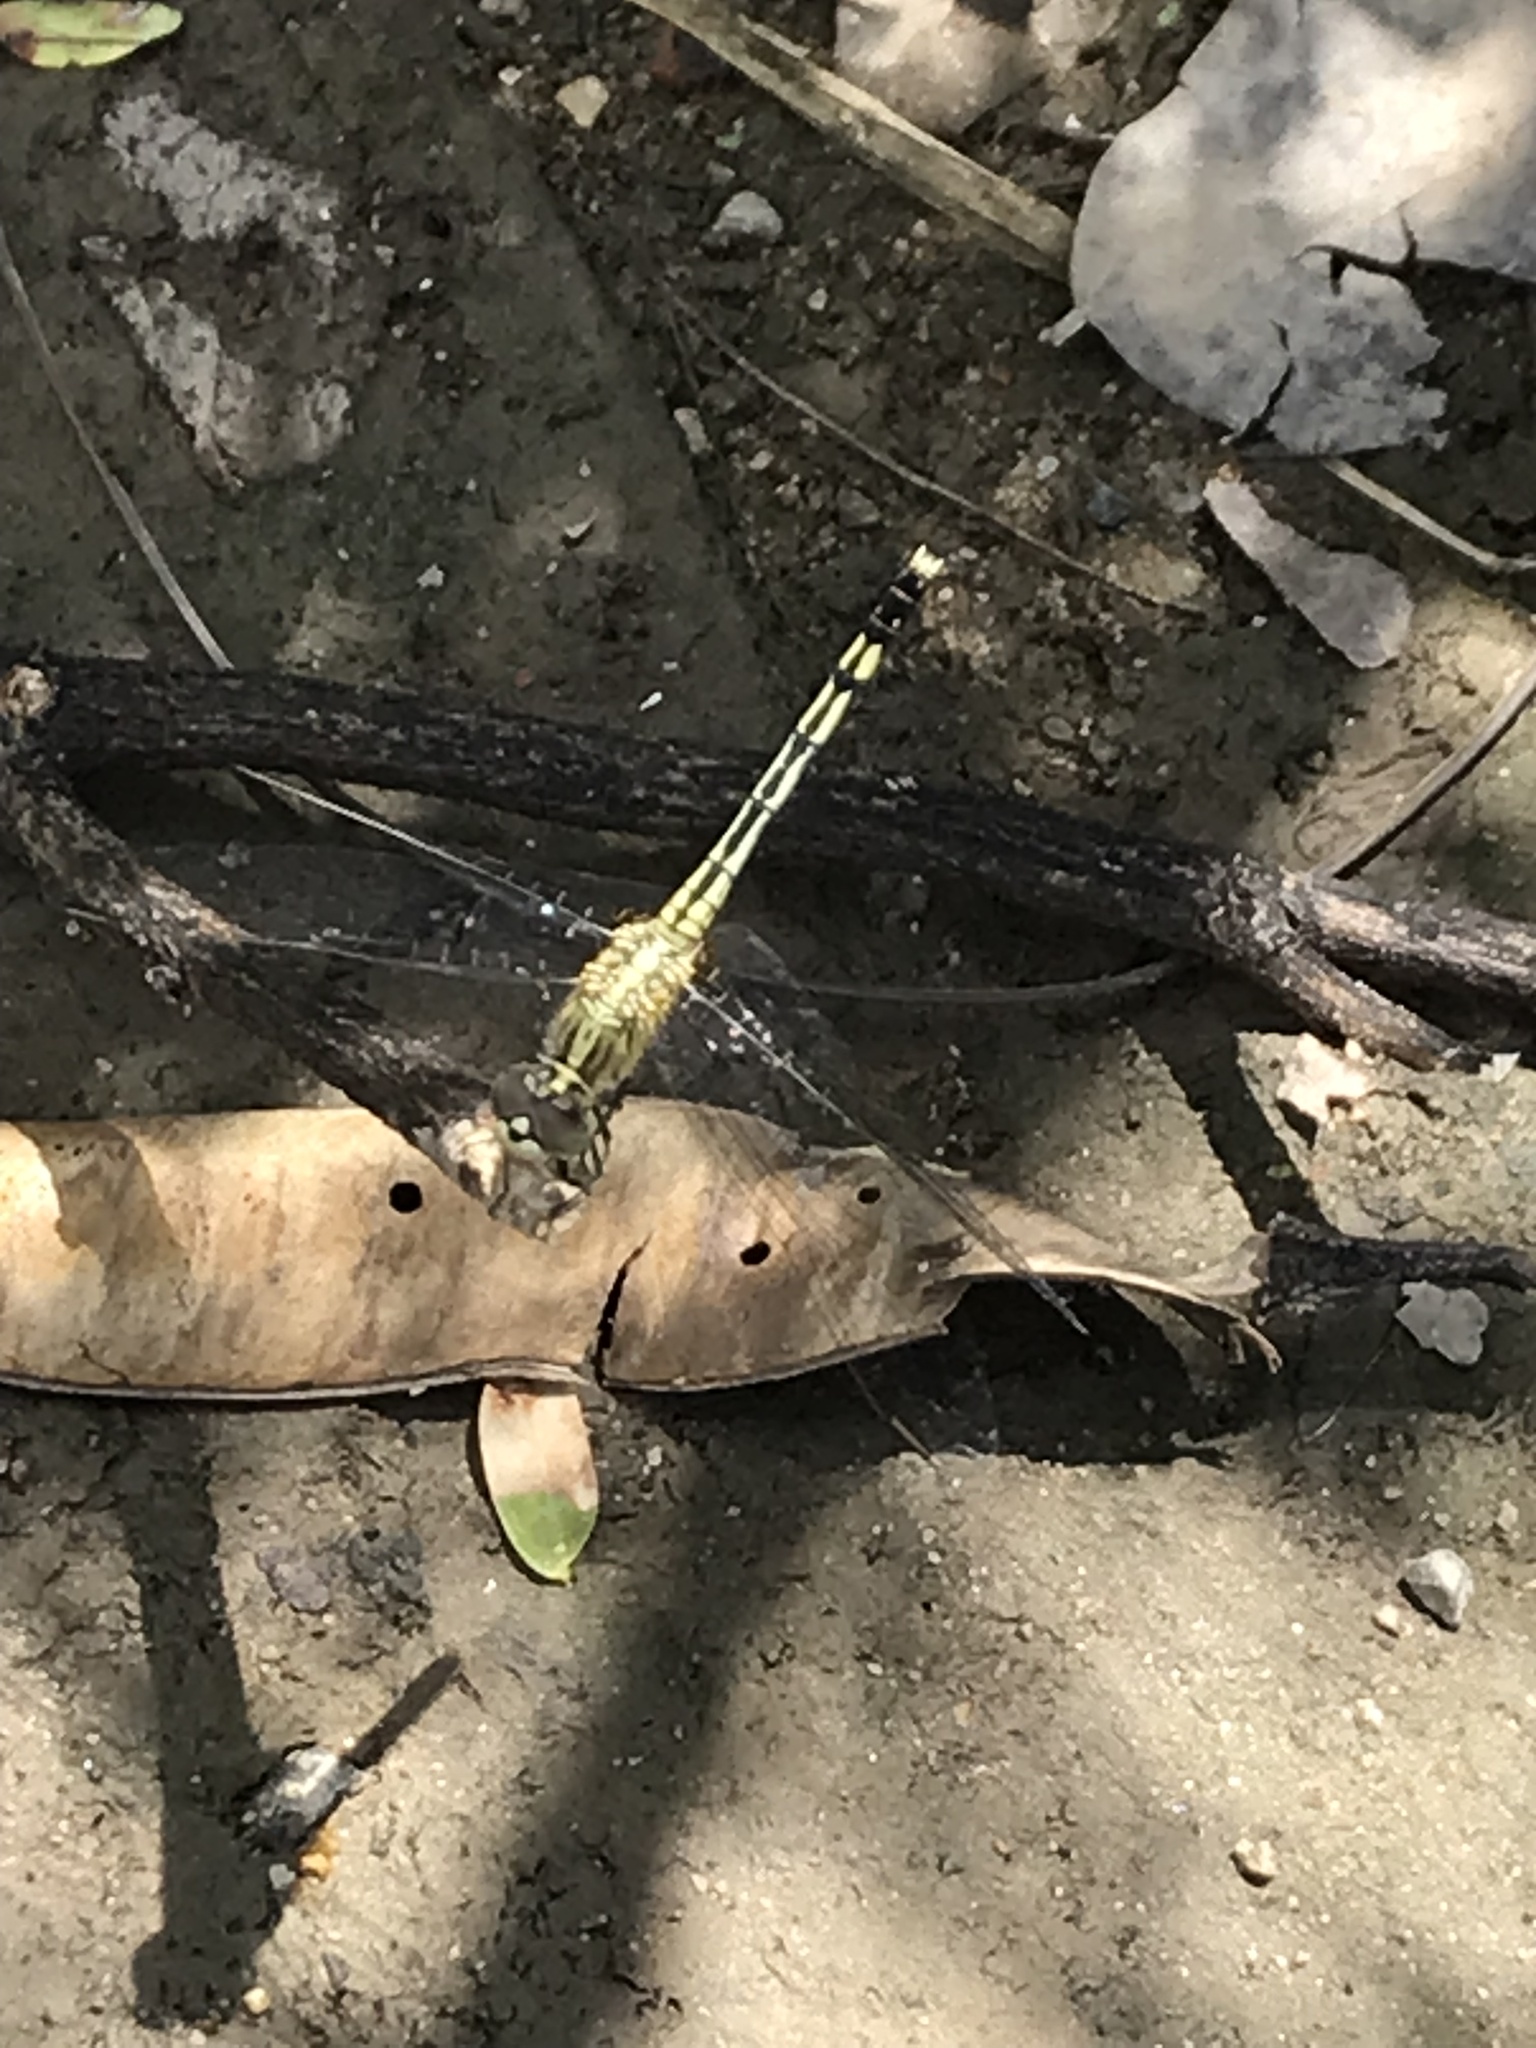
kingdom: Animalia
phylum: Arthropoda
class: Insecta
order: Odonata
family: Libellulidae
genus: Diplacodes
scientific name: Diplacodes trivialis
